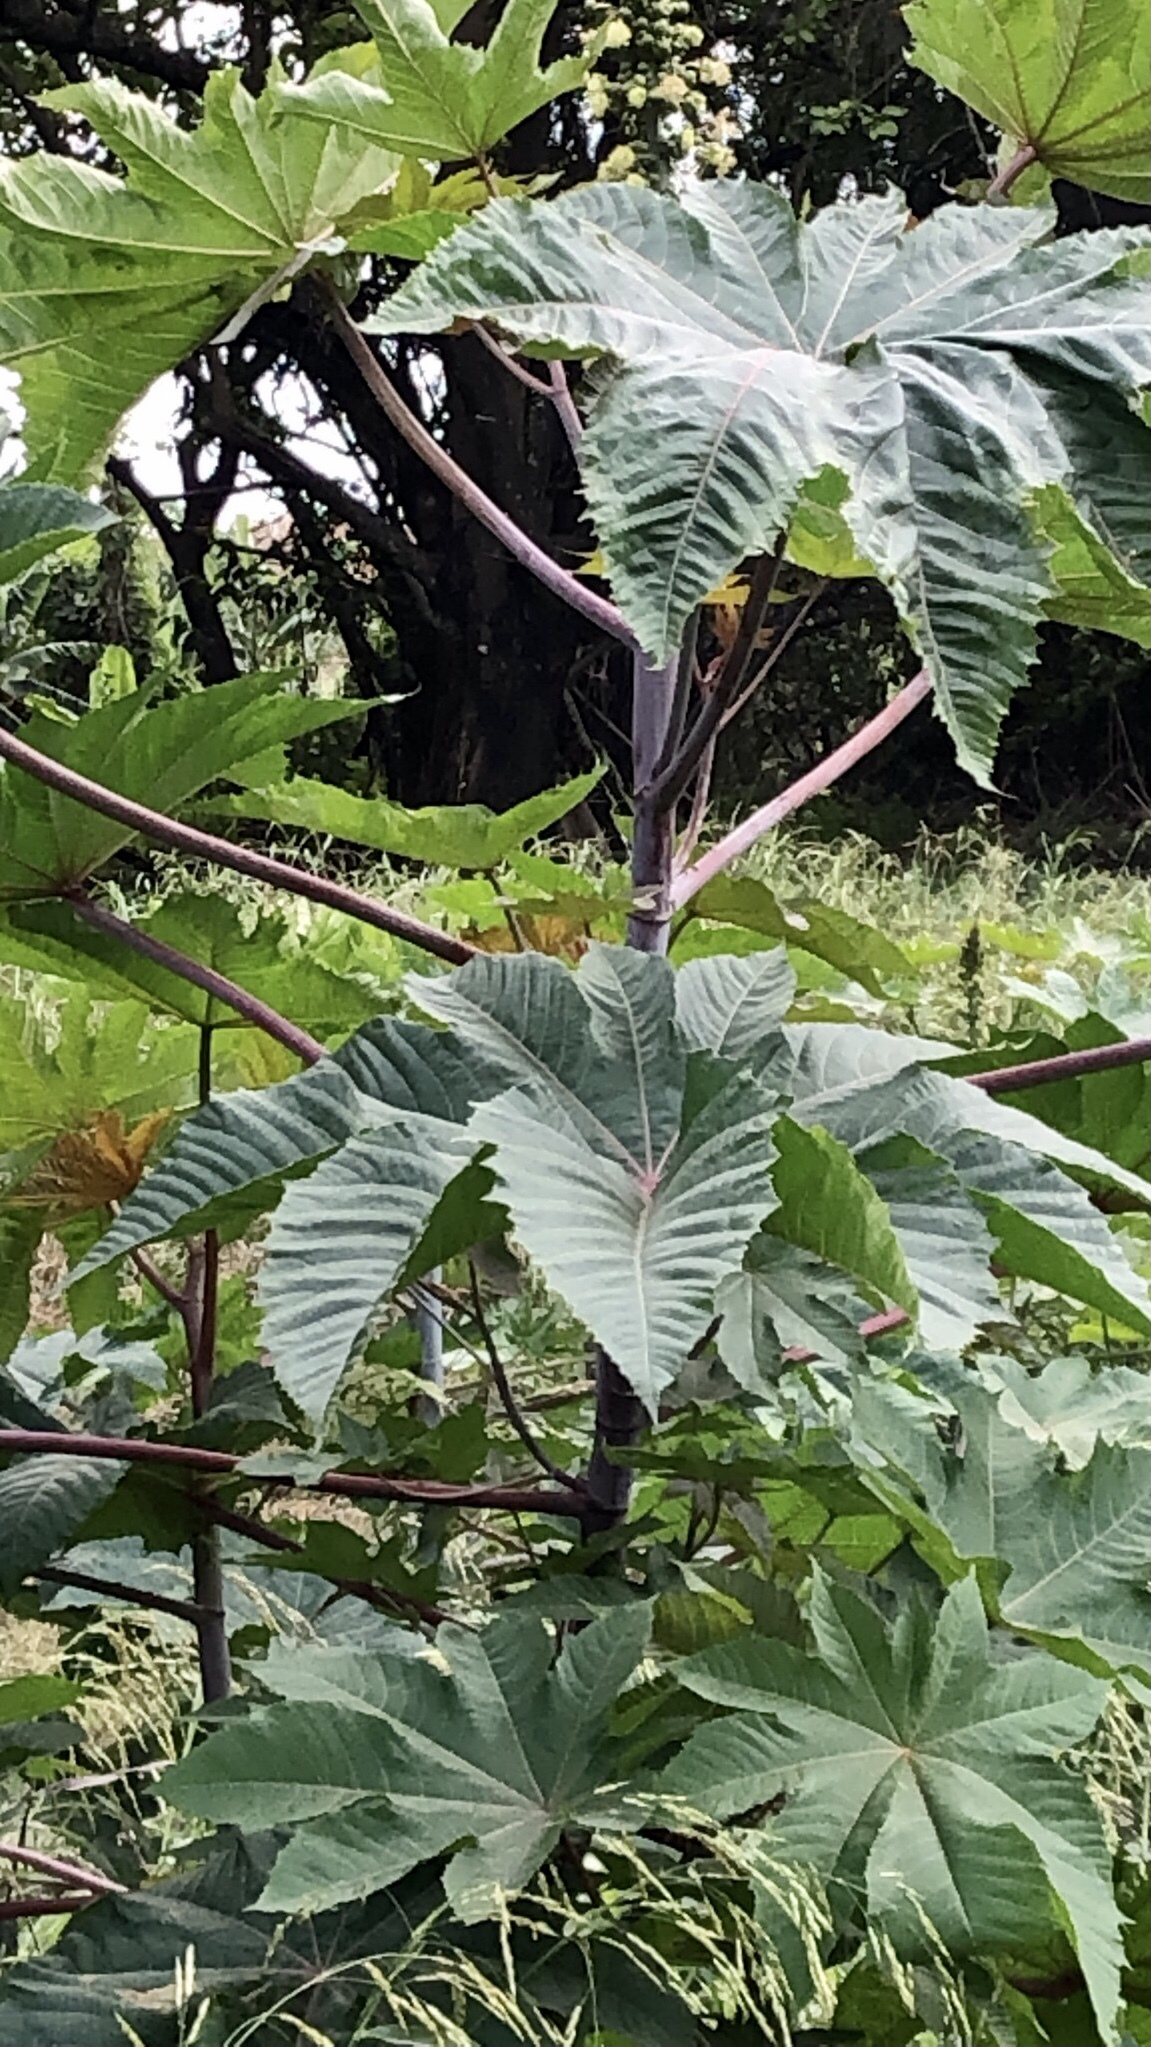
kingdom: Plantae
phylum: Tracheophyta
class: Magnoliopsida
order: Malpighiales
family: Euphorbiaceae
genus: Ricinus
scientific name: Ricinus communis
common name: Castor-oil-plant
